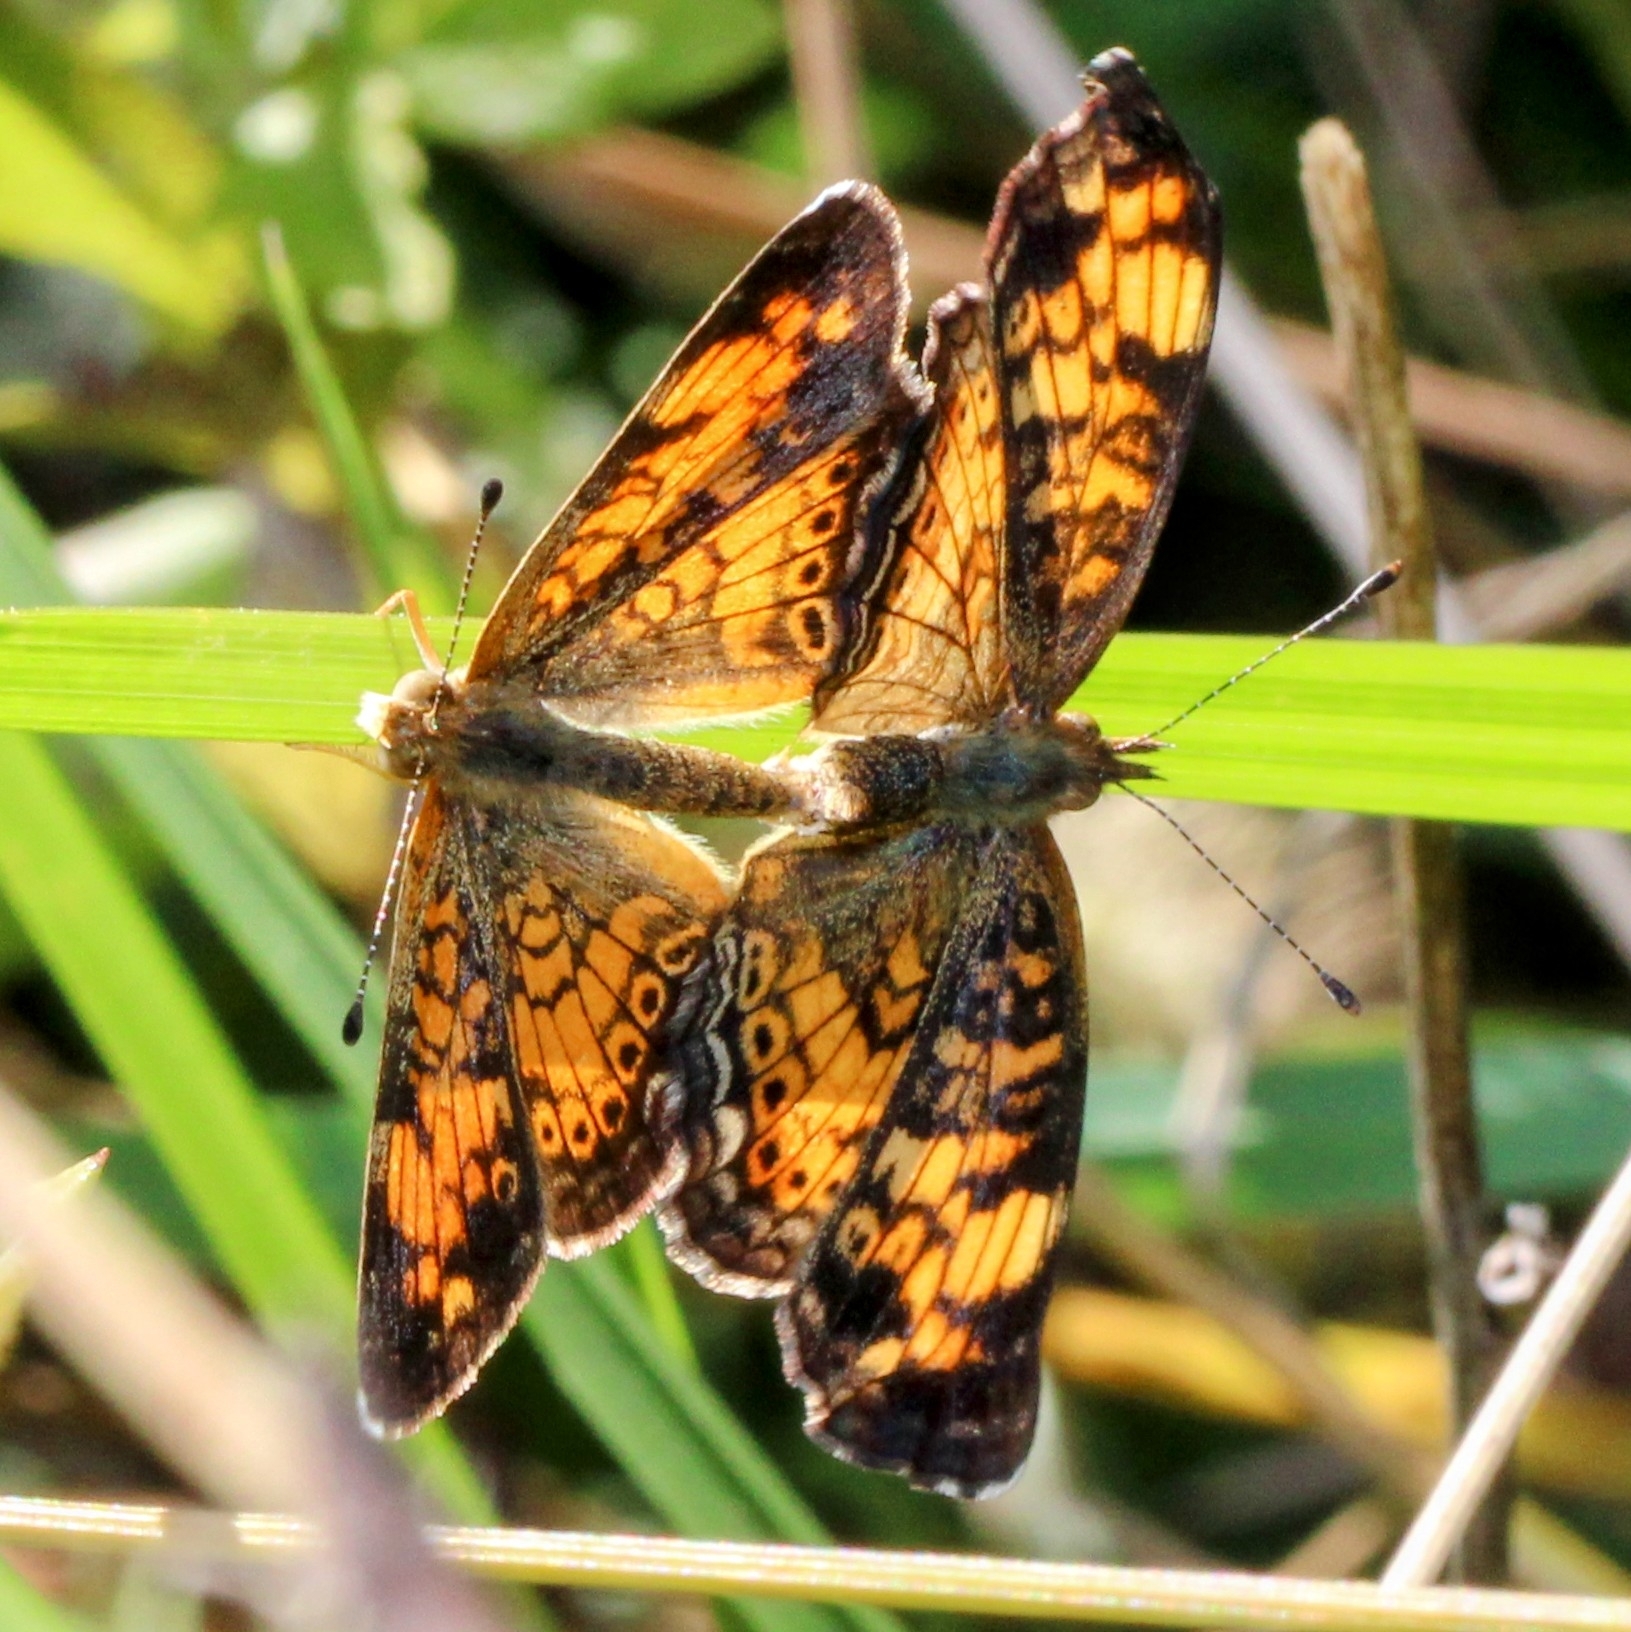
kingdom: Animalia
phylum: Arthropoda
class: Insecta
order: Lepidoptera
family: Nymphalidae
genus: Phyciodes
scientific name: Phyciodes tharos
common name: Pearl crescent
